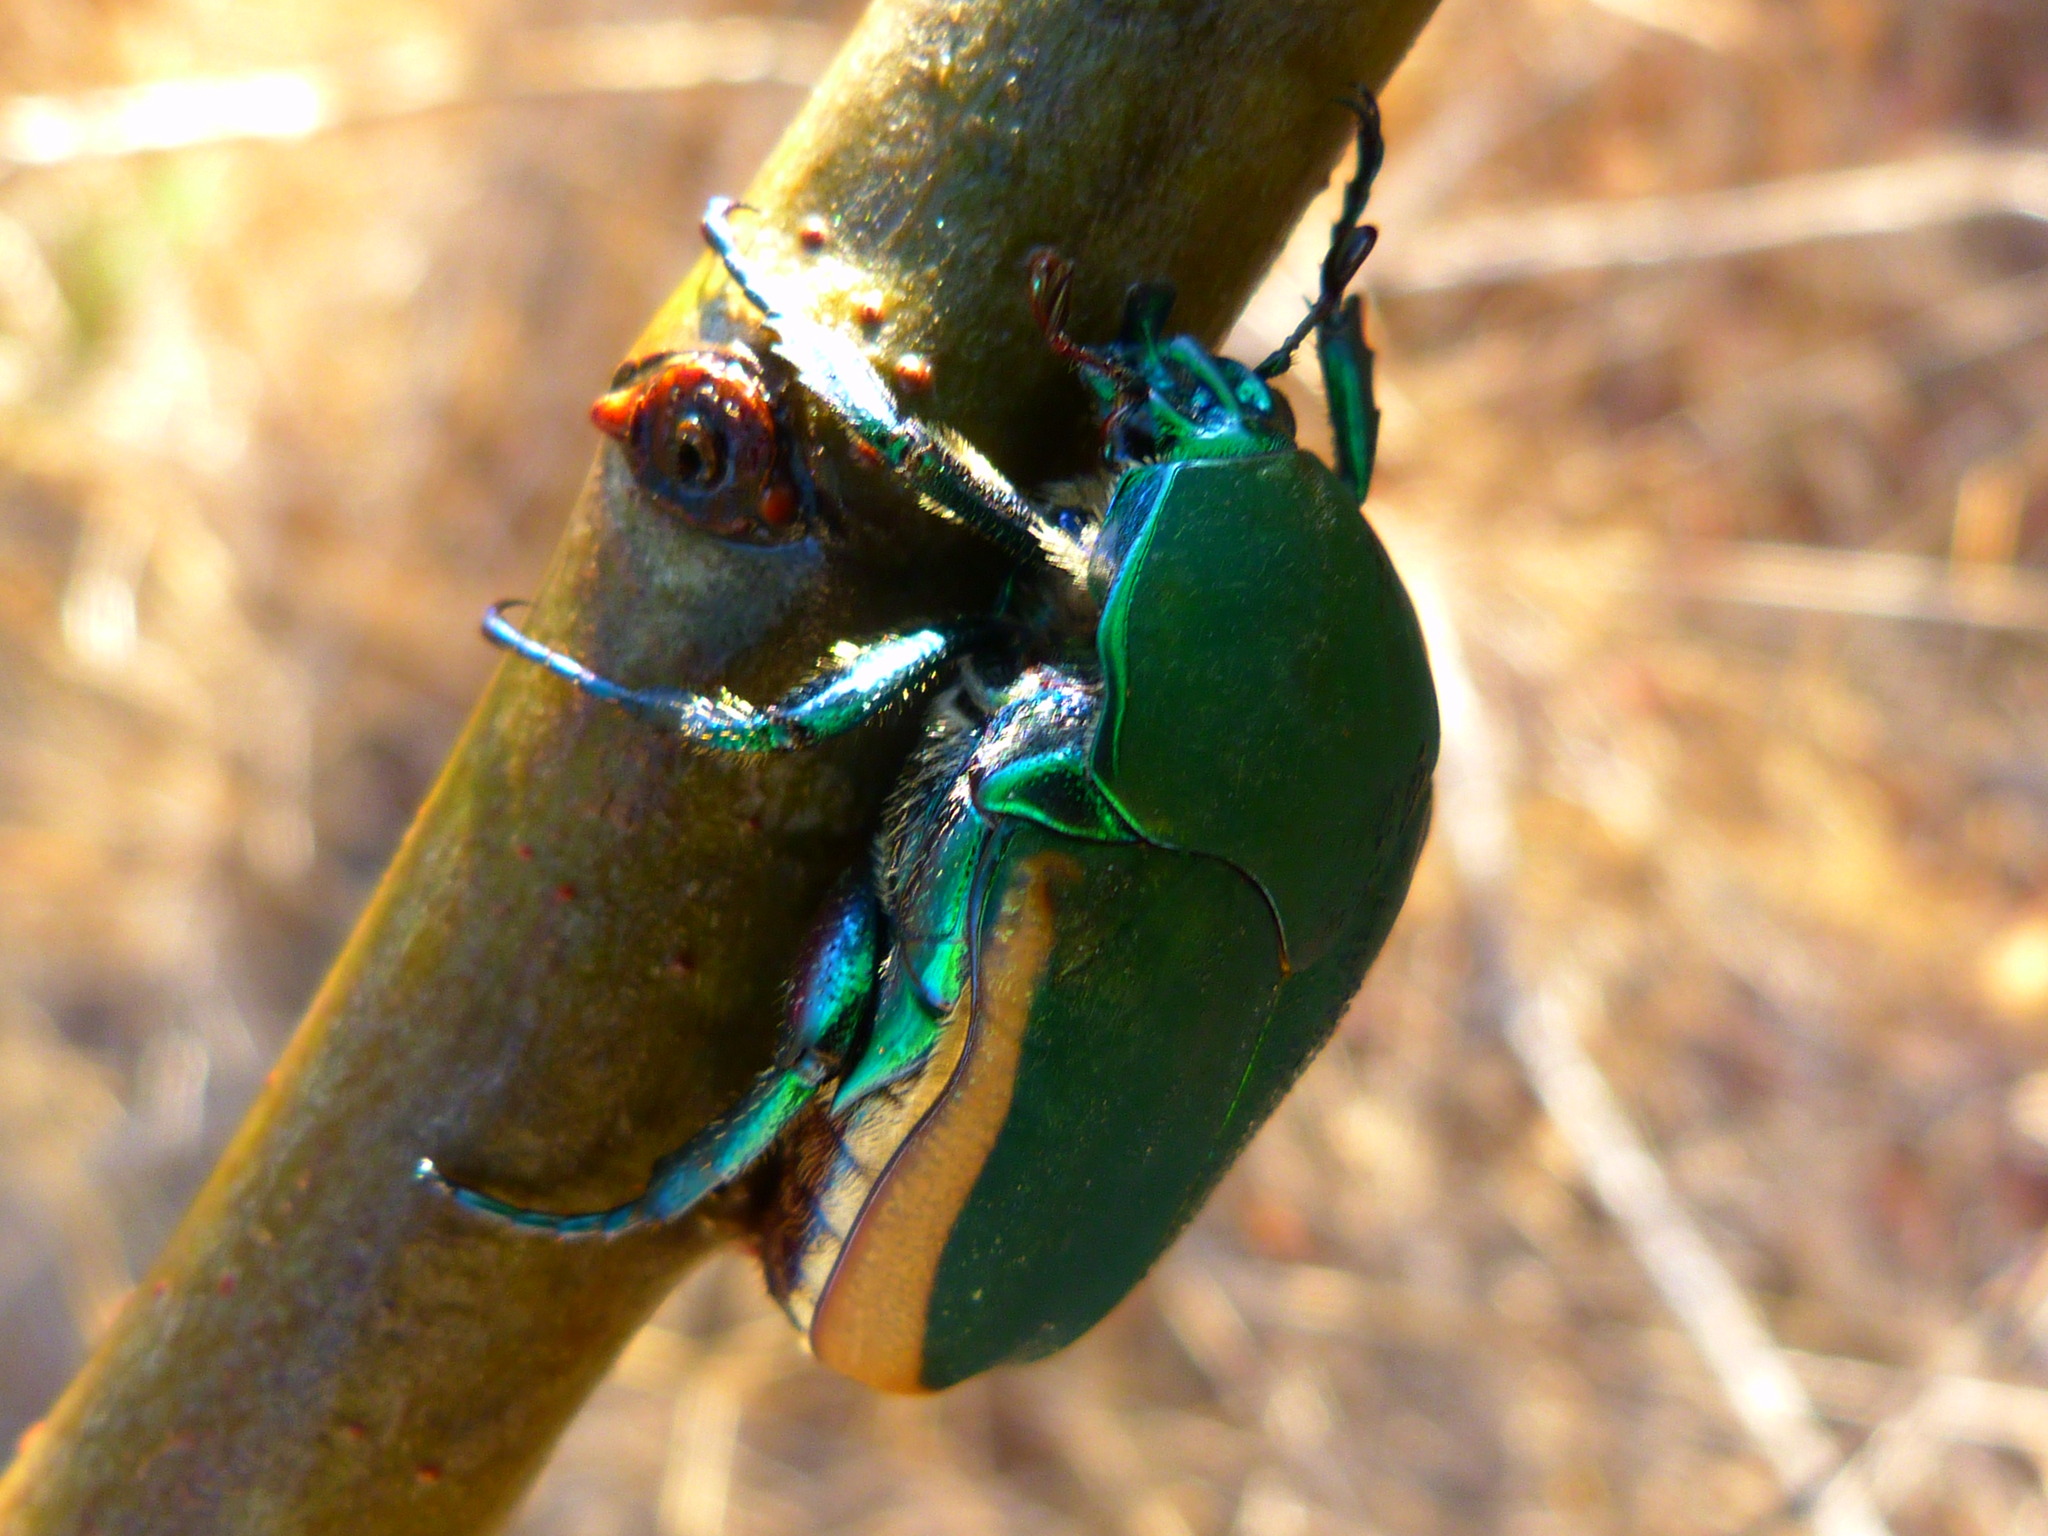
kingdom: Animalia
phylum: Arthropoda
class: Insecta
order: Coleoptera
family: Scarabaeidae
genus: Cotinis
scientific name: Cotinis mutabilis
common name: Figeater beetle
